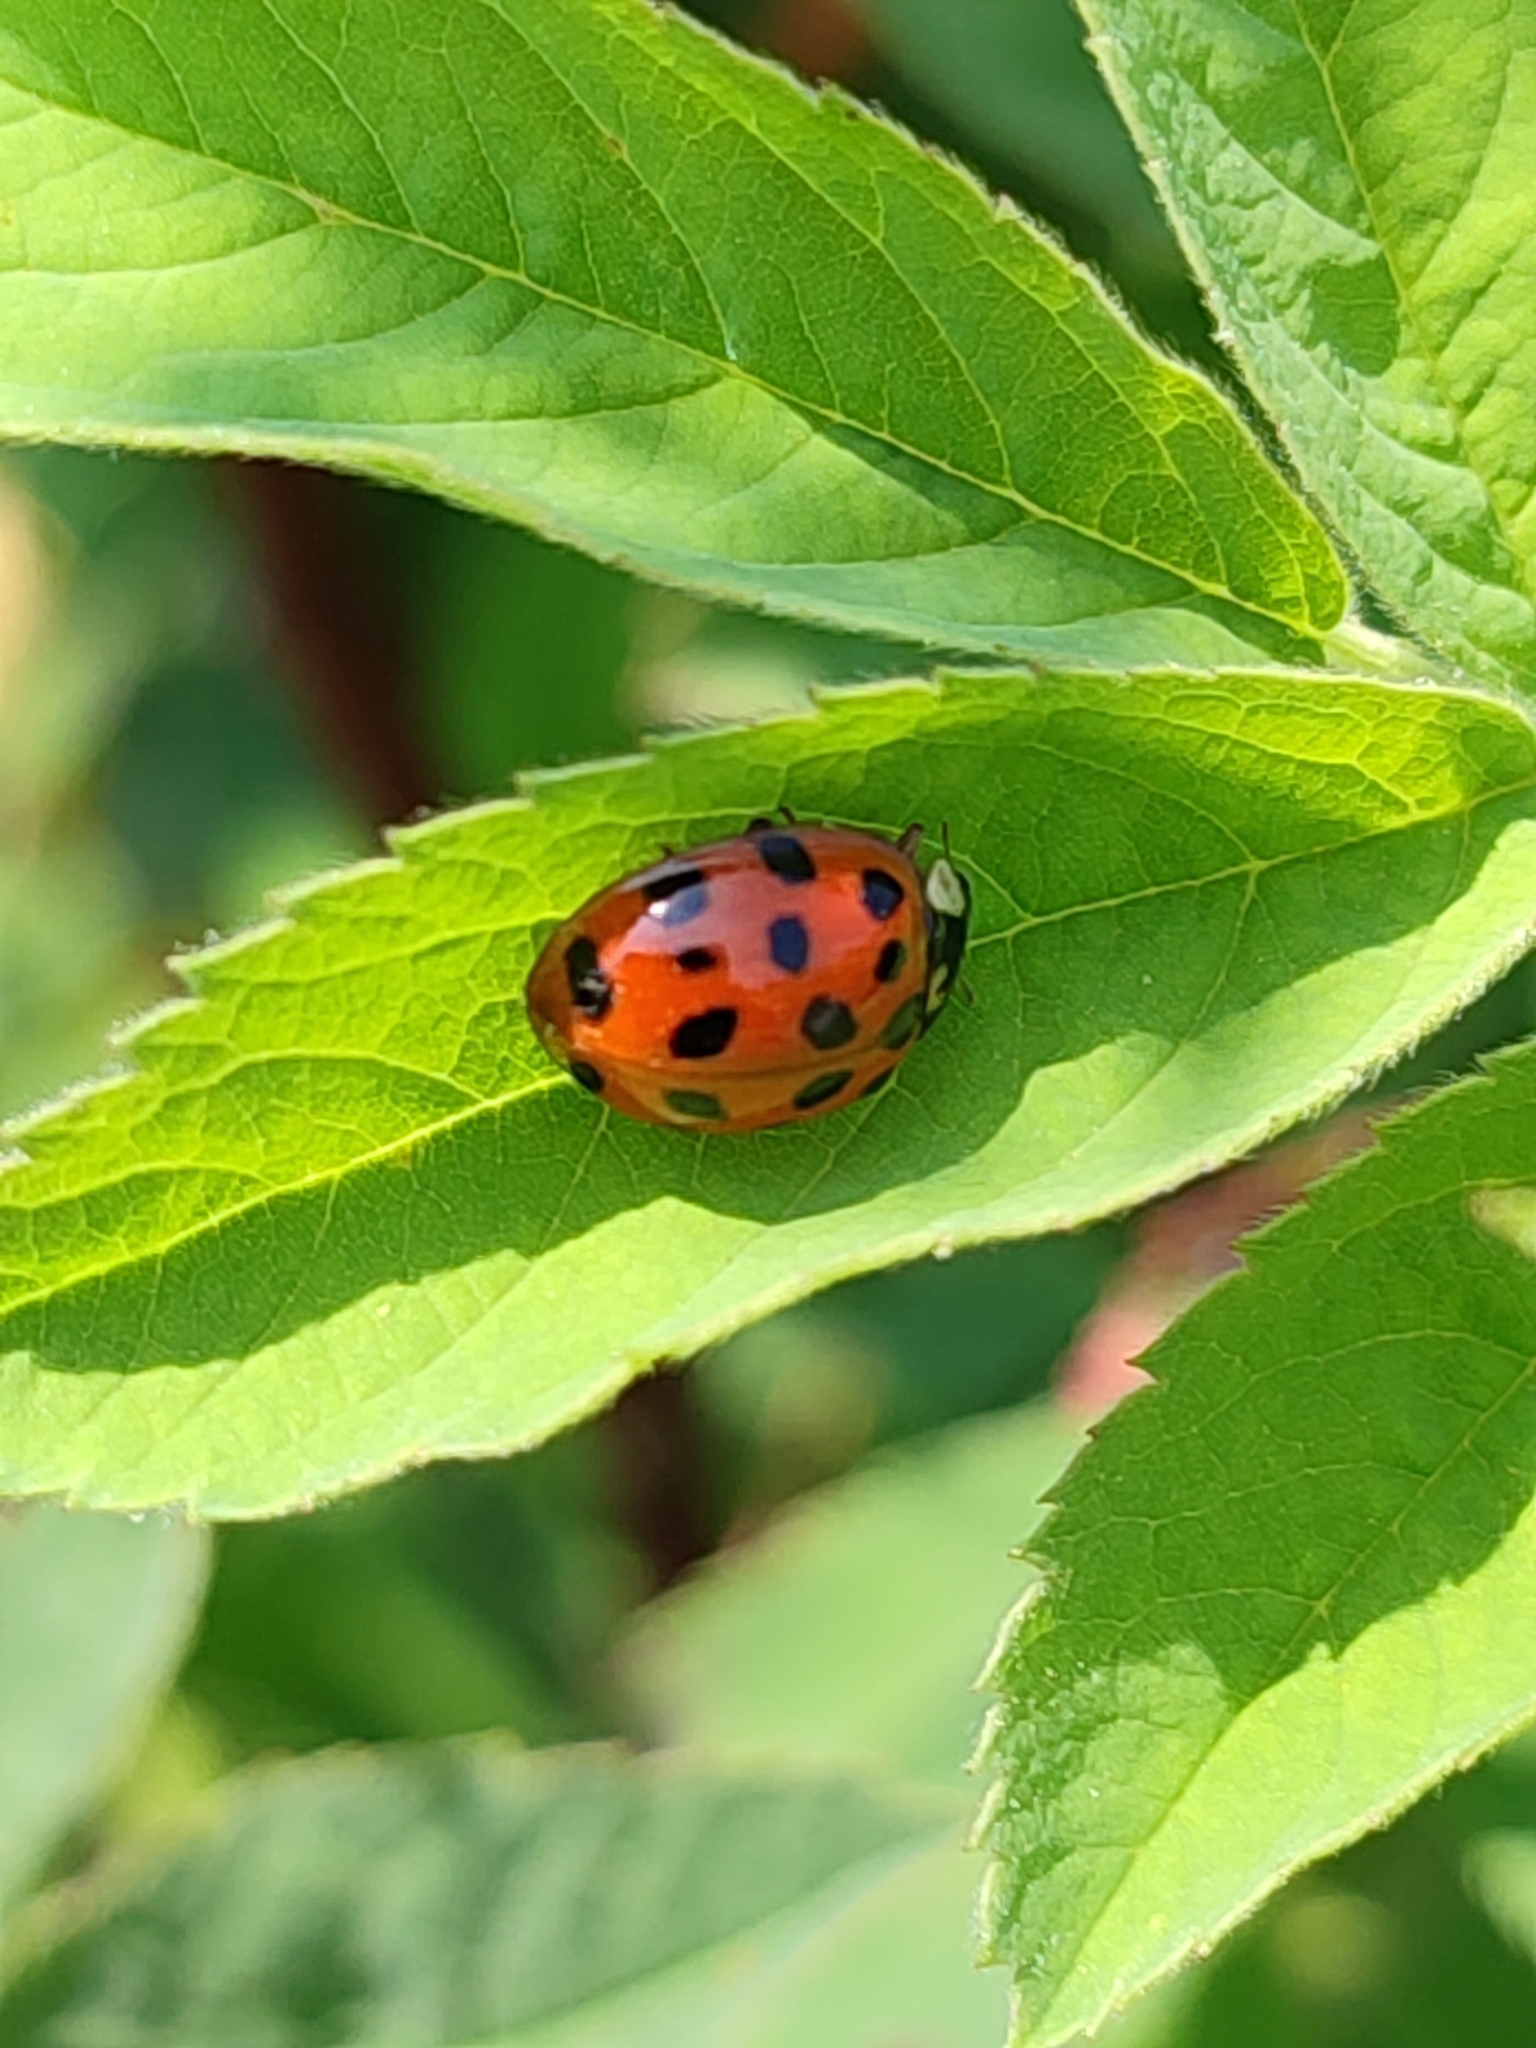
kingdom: Animalia
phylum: Arthropoda
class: Insecta
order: Coleoptera
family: Coccinellidae
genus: Harmonia
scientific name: Harmonia axyridis
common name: Harlequin ladybird
